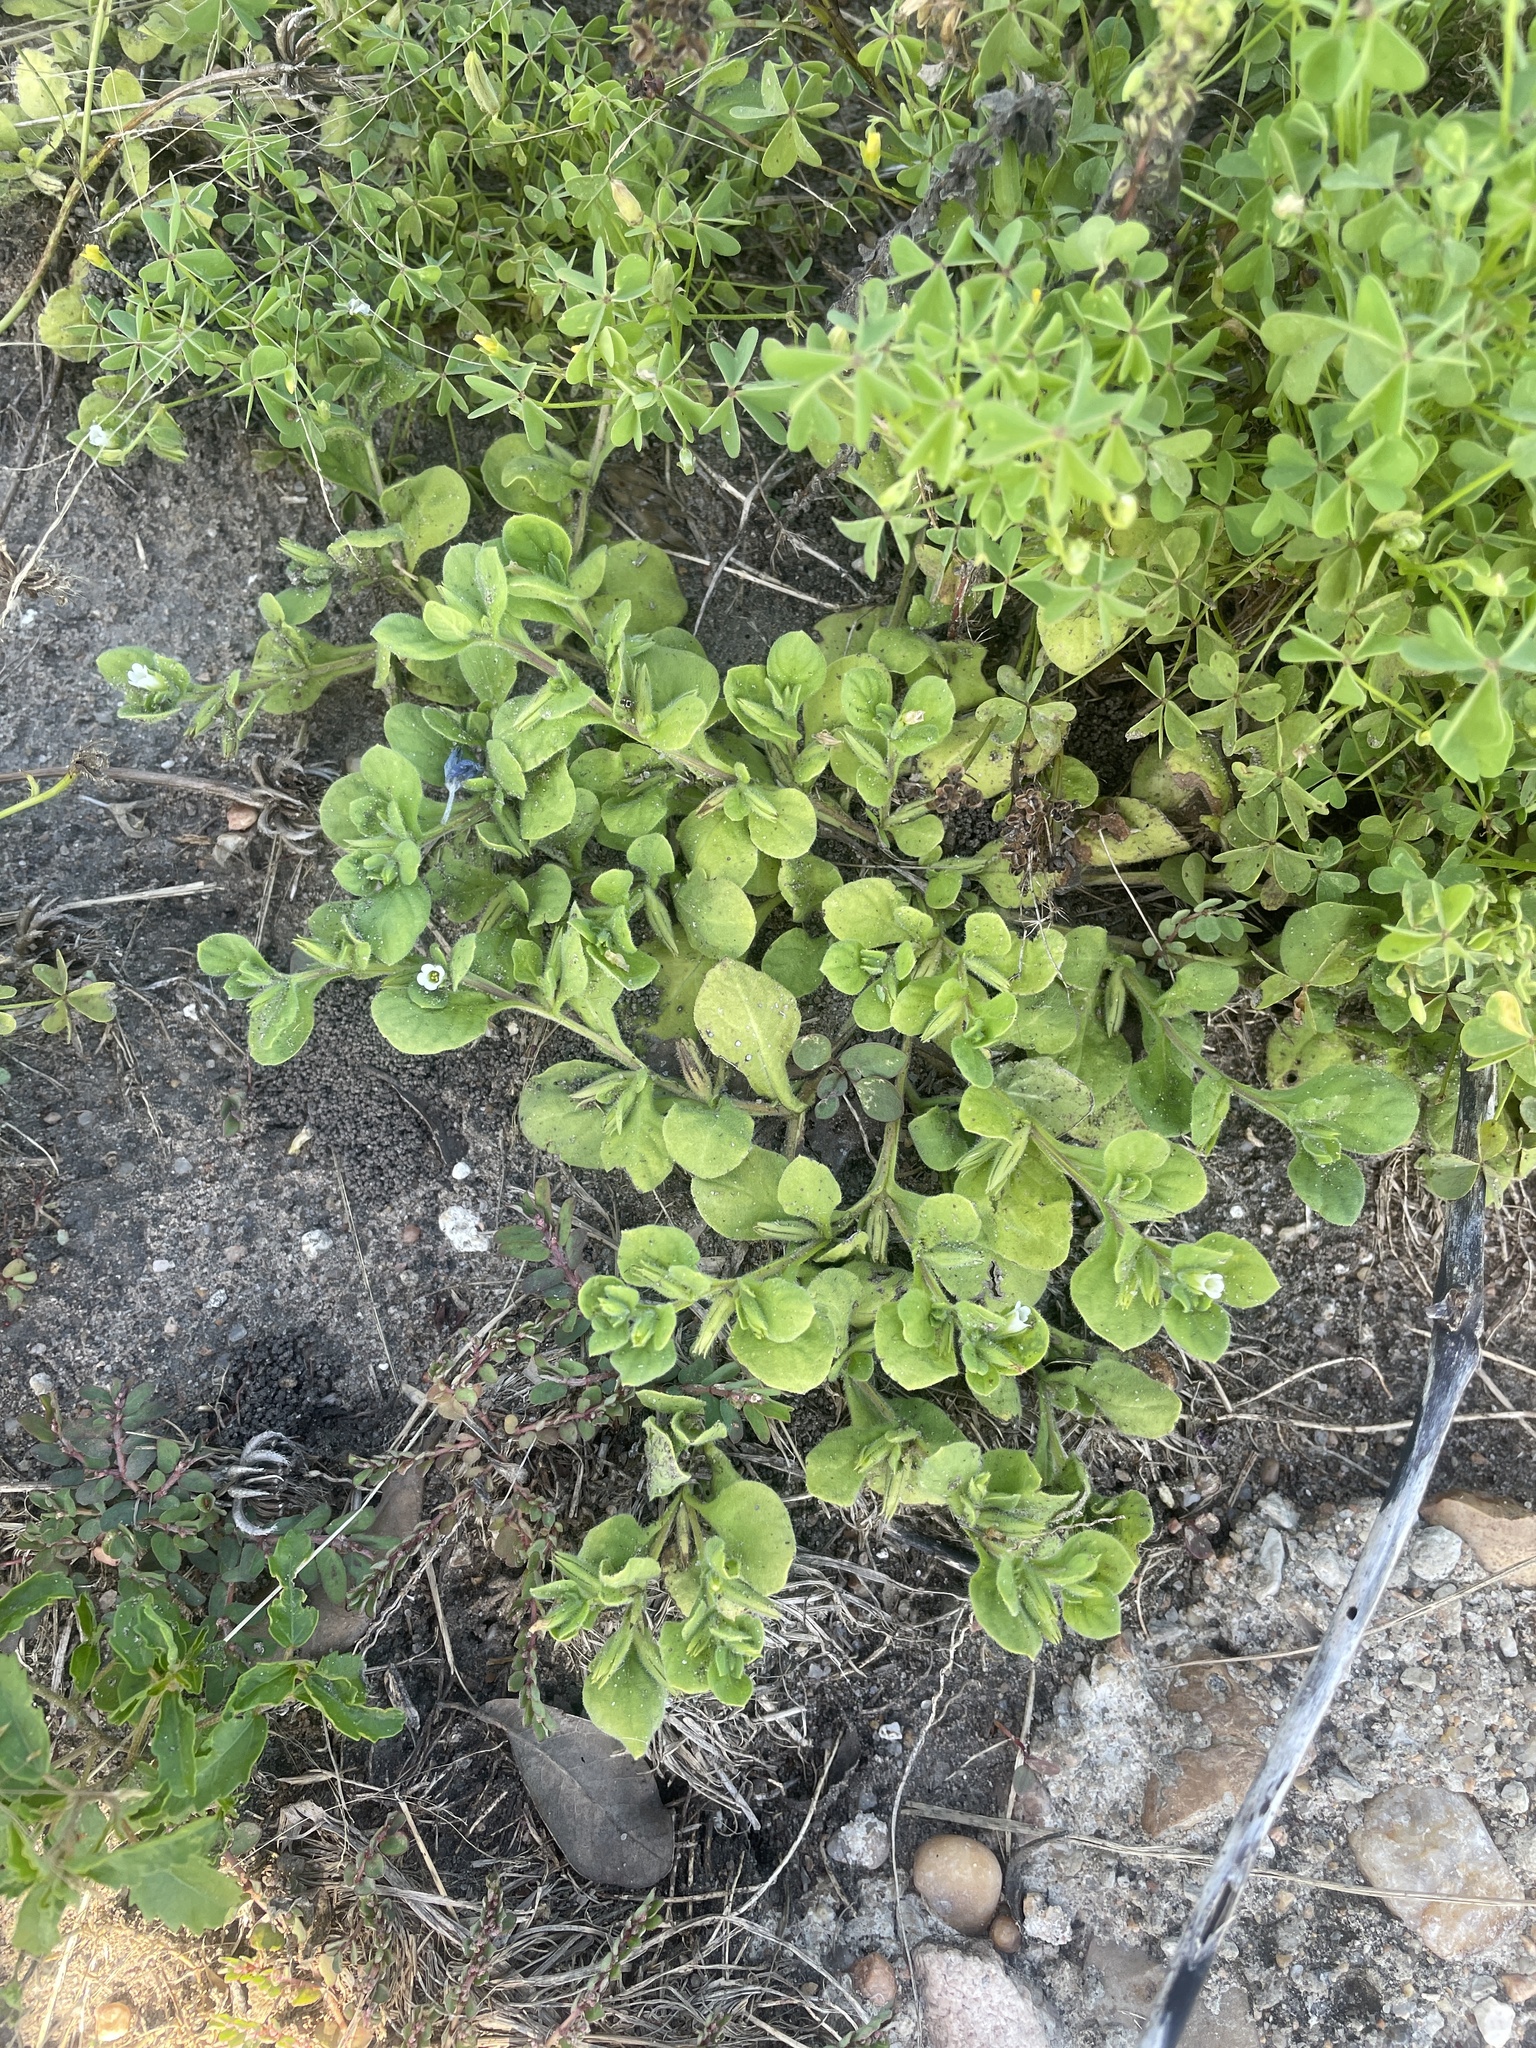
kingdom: Plantae
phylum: Tracheophyta
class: Magnoliopsida
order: Boraginales
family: Namaceae
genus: Nama
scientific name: Nama jamaicensis
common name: Jamaicanweed
